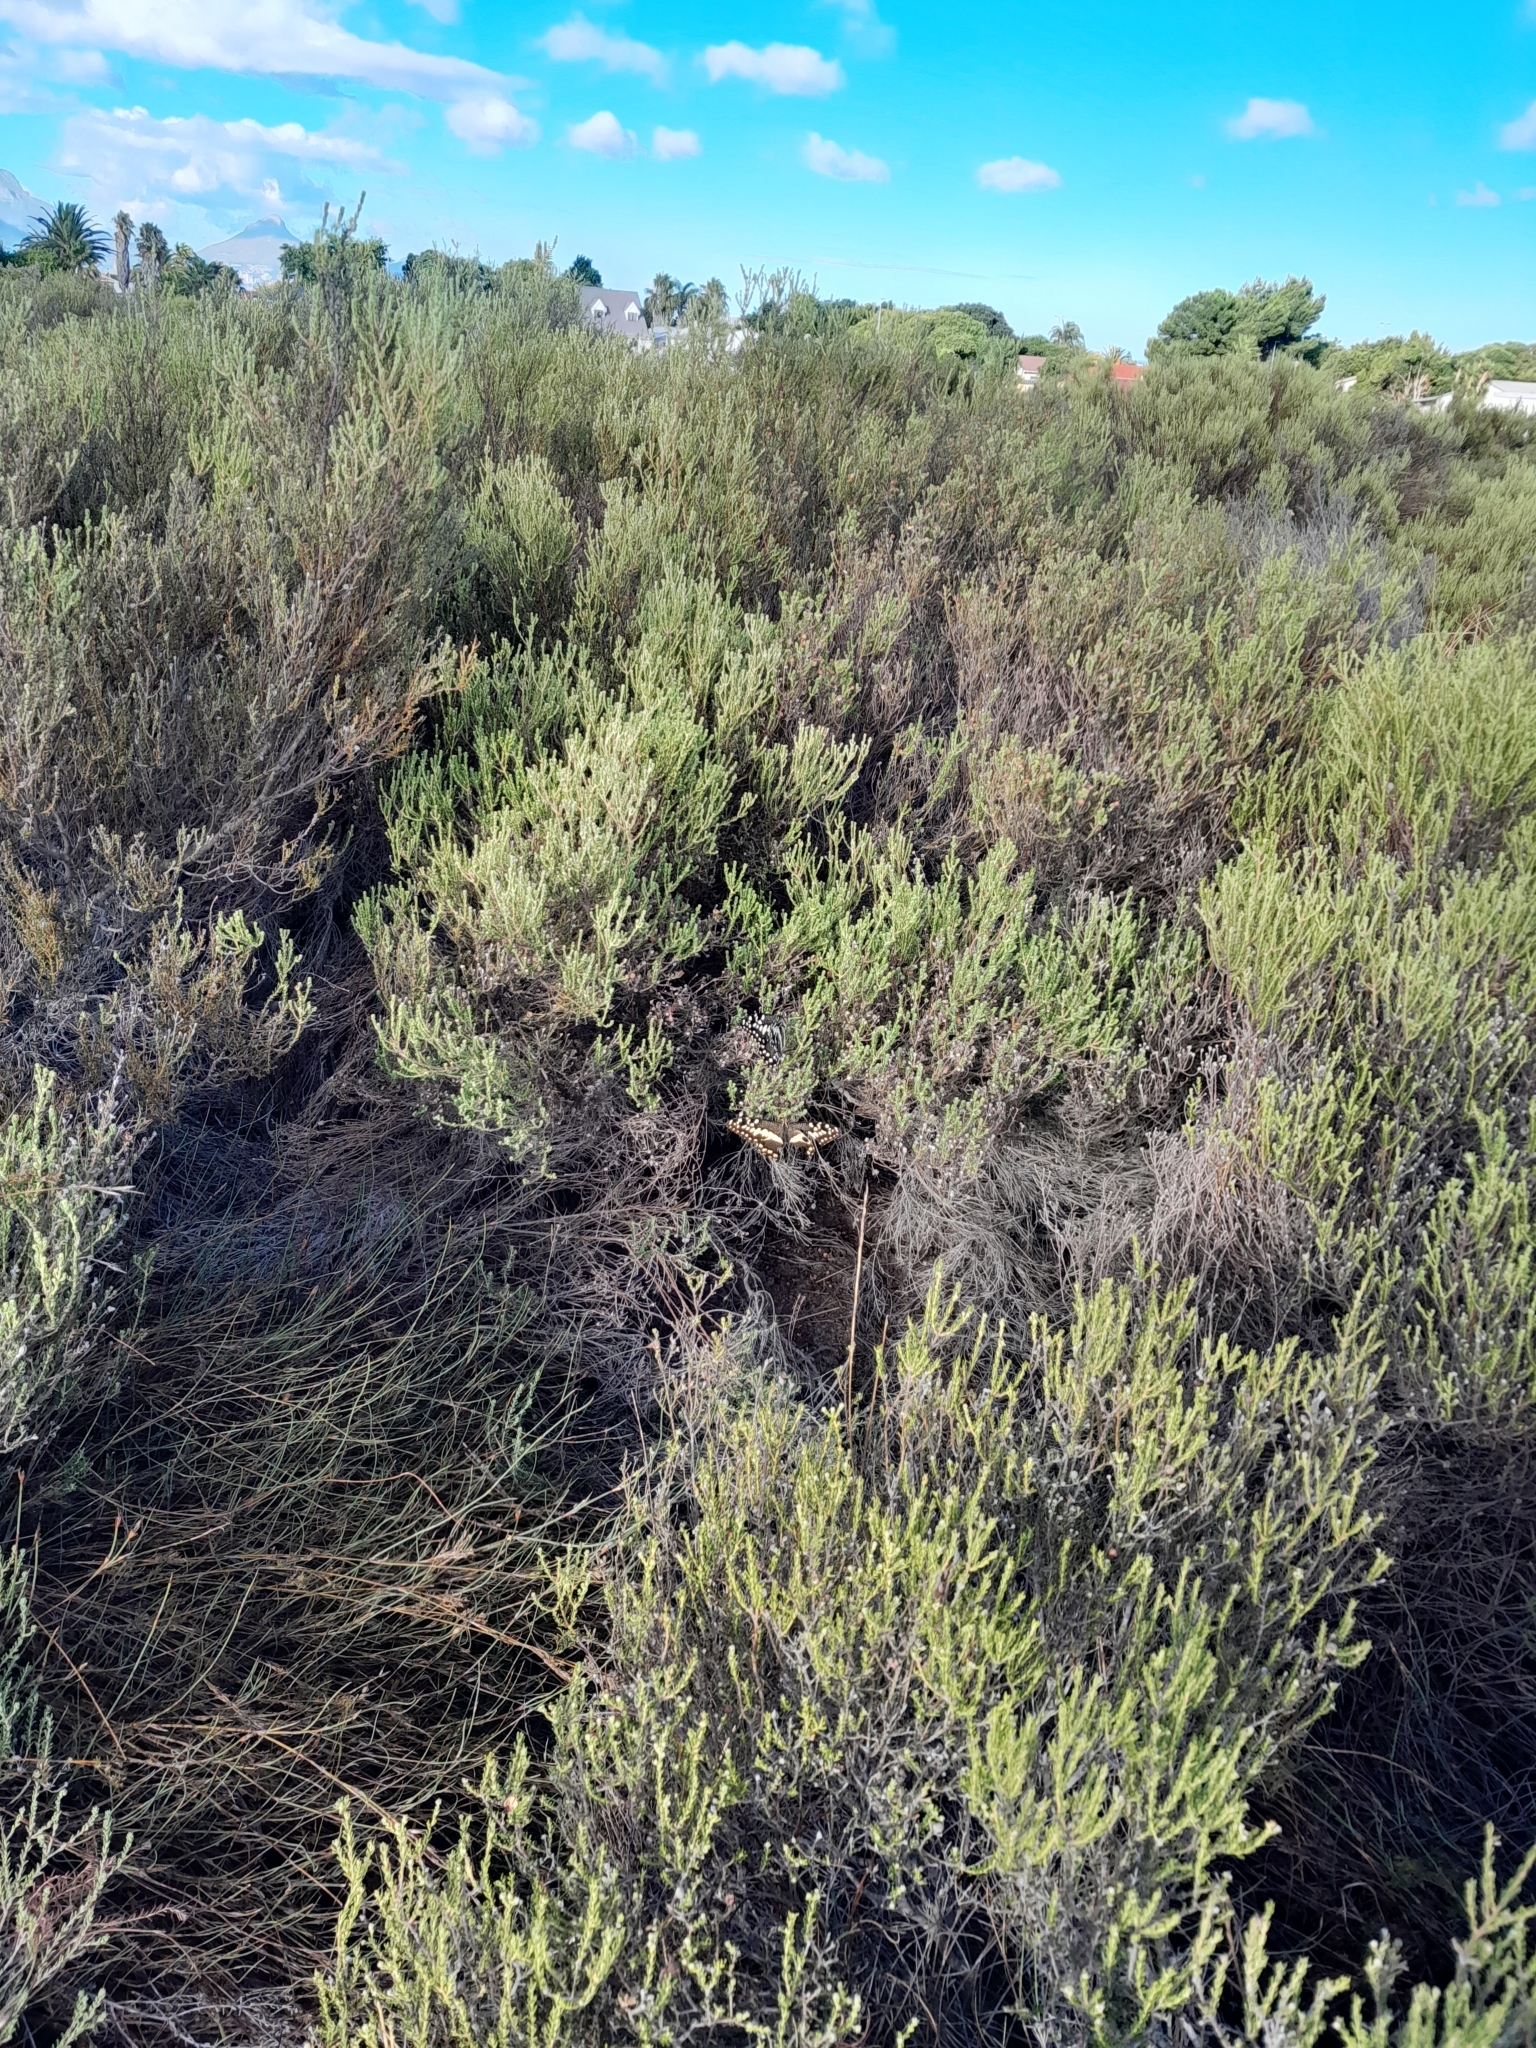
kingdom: Animalia
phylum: Arthropoda
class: Insecta
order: Lepidoptera
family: Papilionidae
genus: Papilio
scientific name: Papilio demodocus
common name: Christmas butterfly
